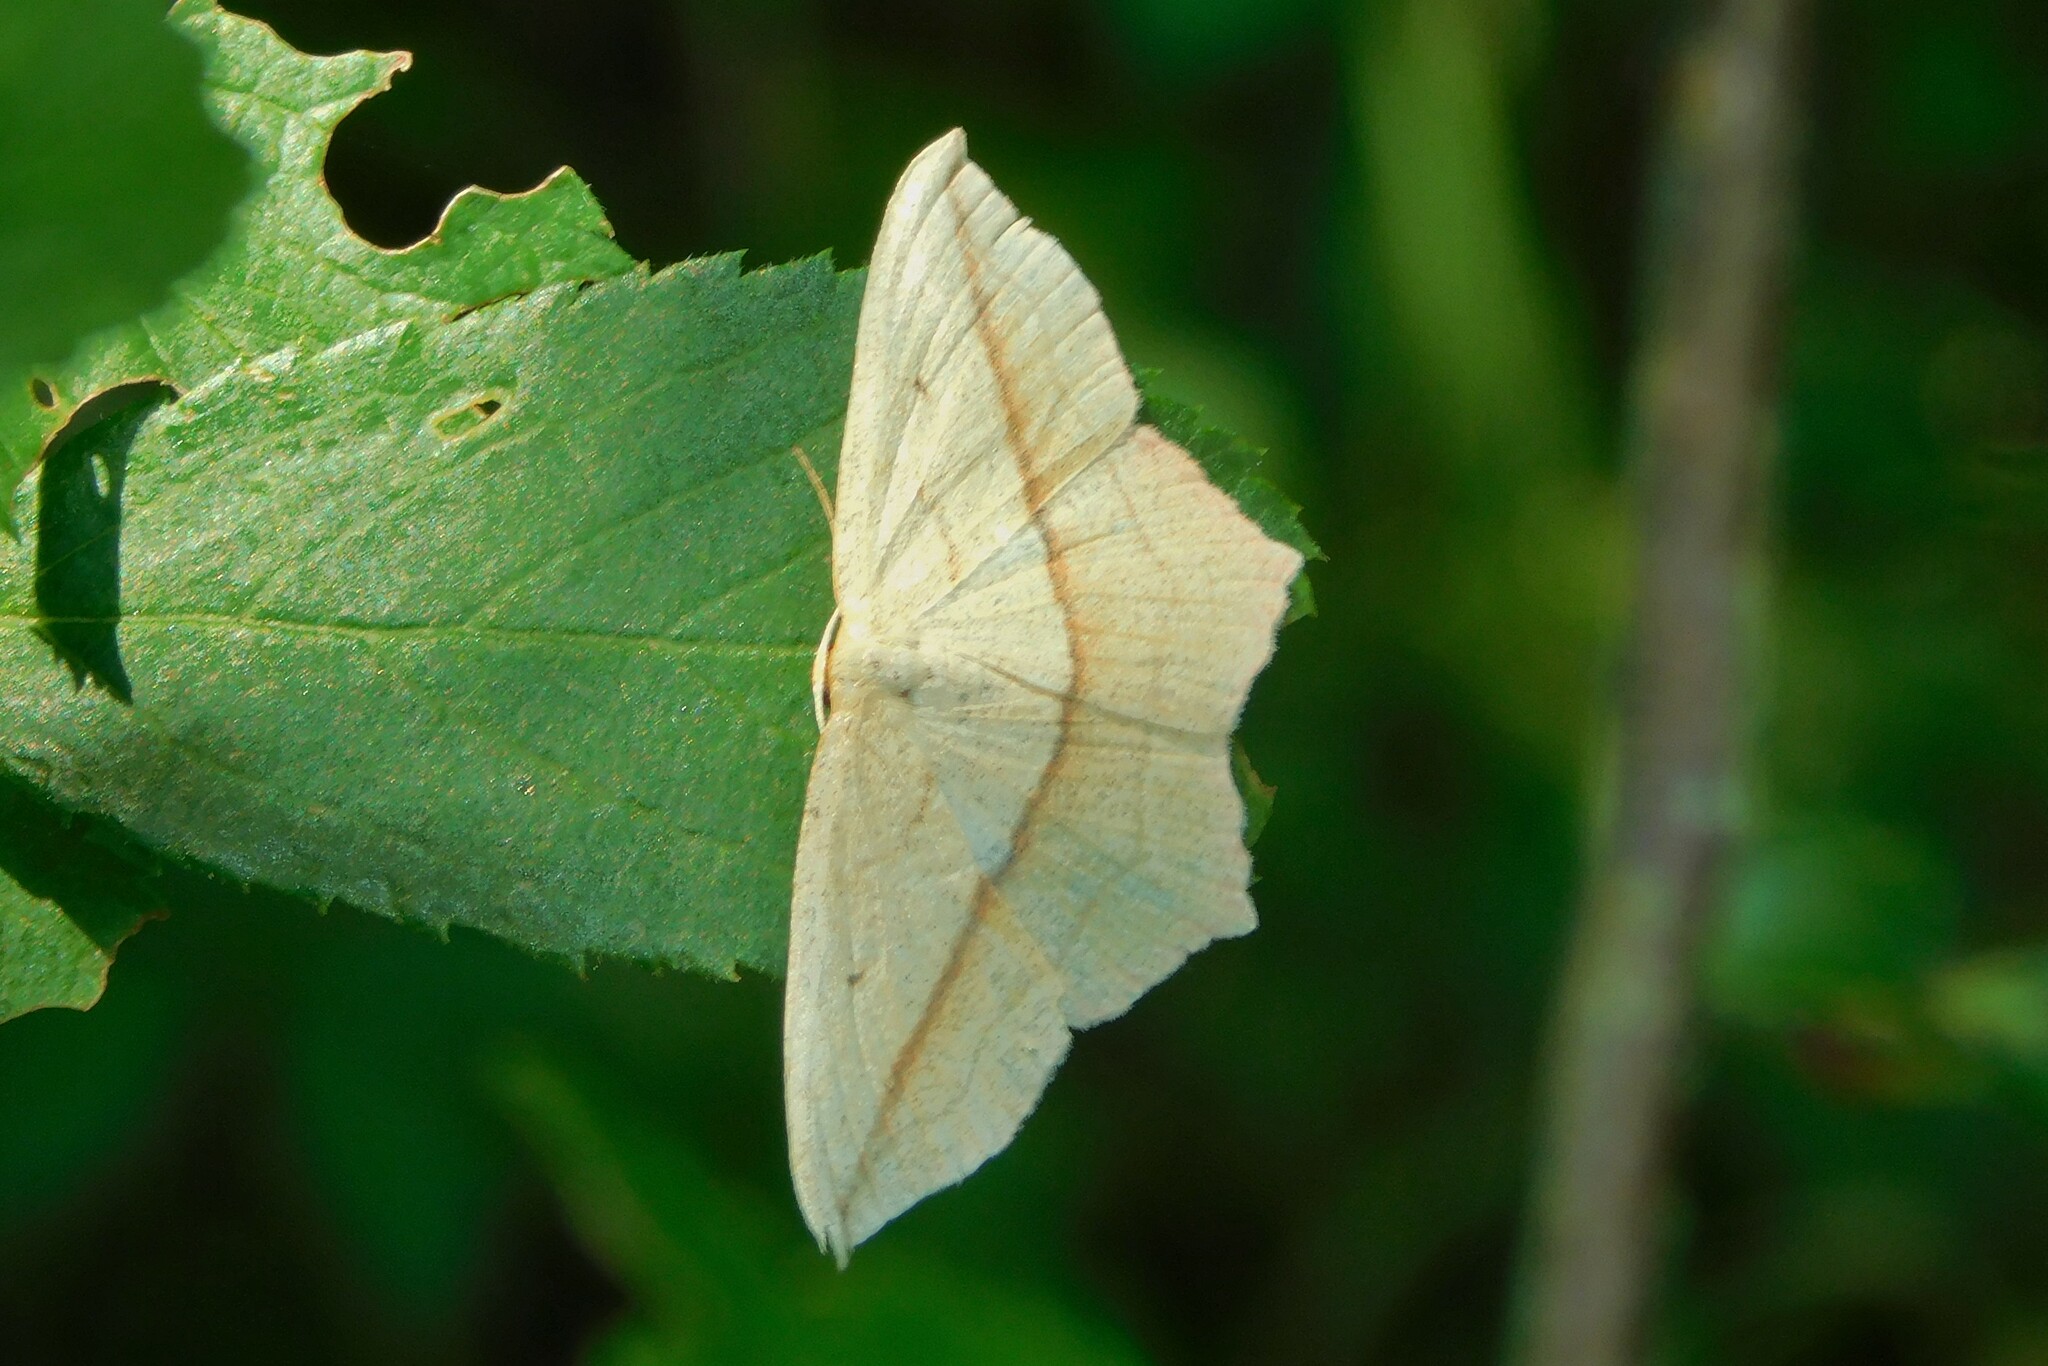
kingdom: Animalia
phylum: Arthropoda
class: Insecta
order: Lepidoptera
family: Geometridae
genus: Timandra
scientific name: Timandra comae
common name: Blood-vein
